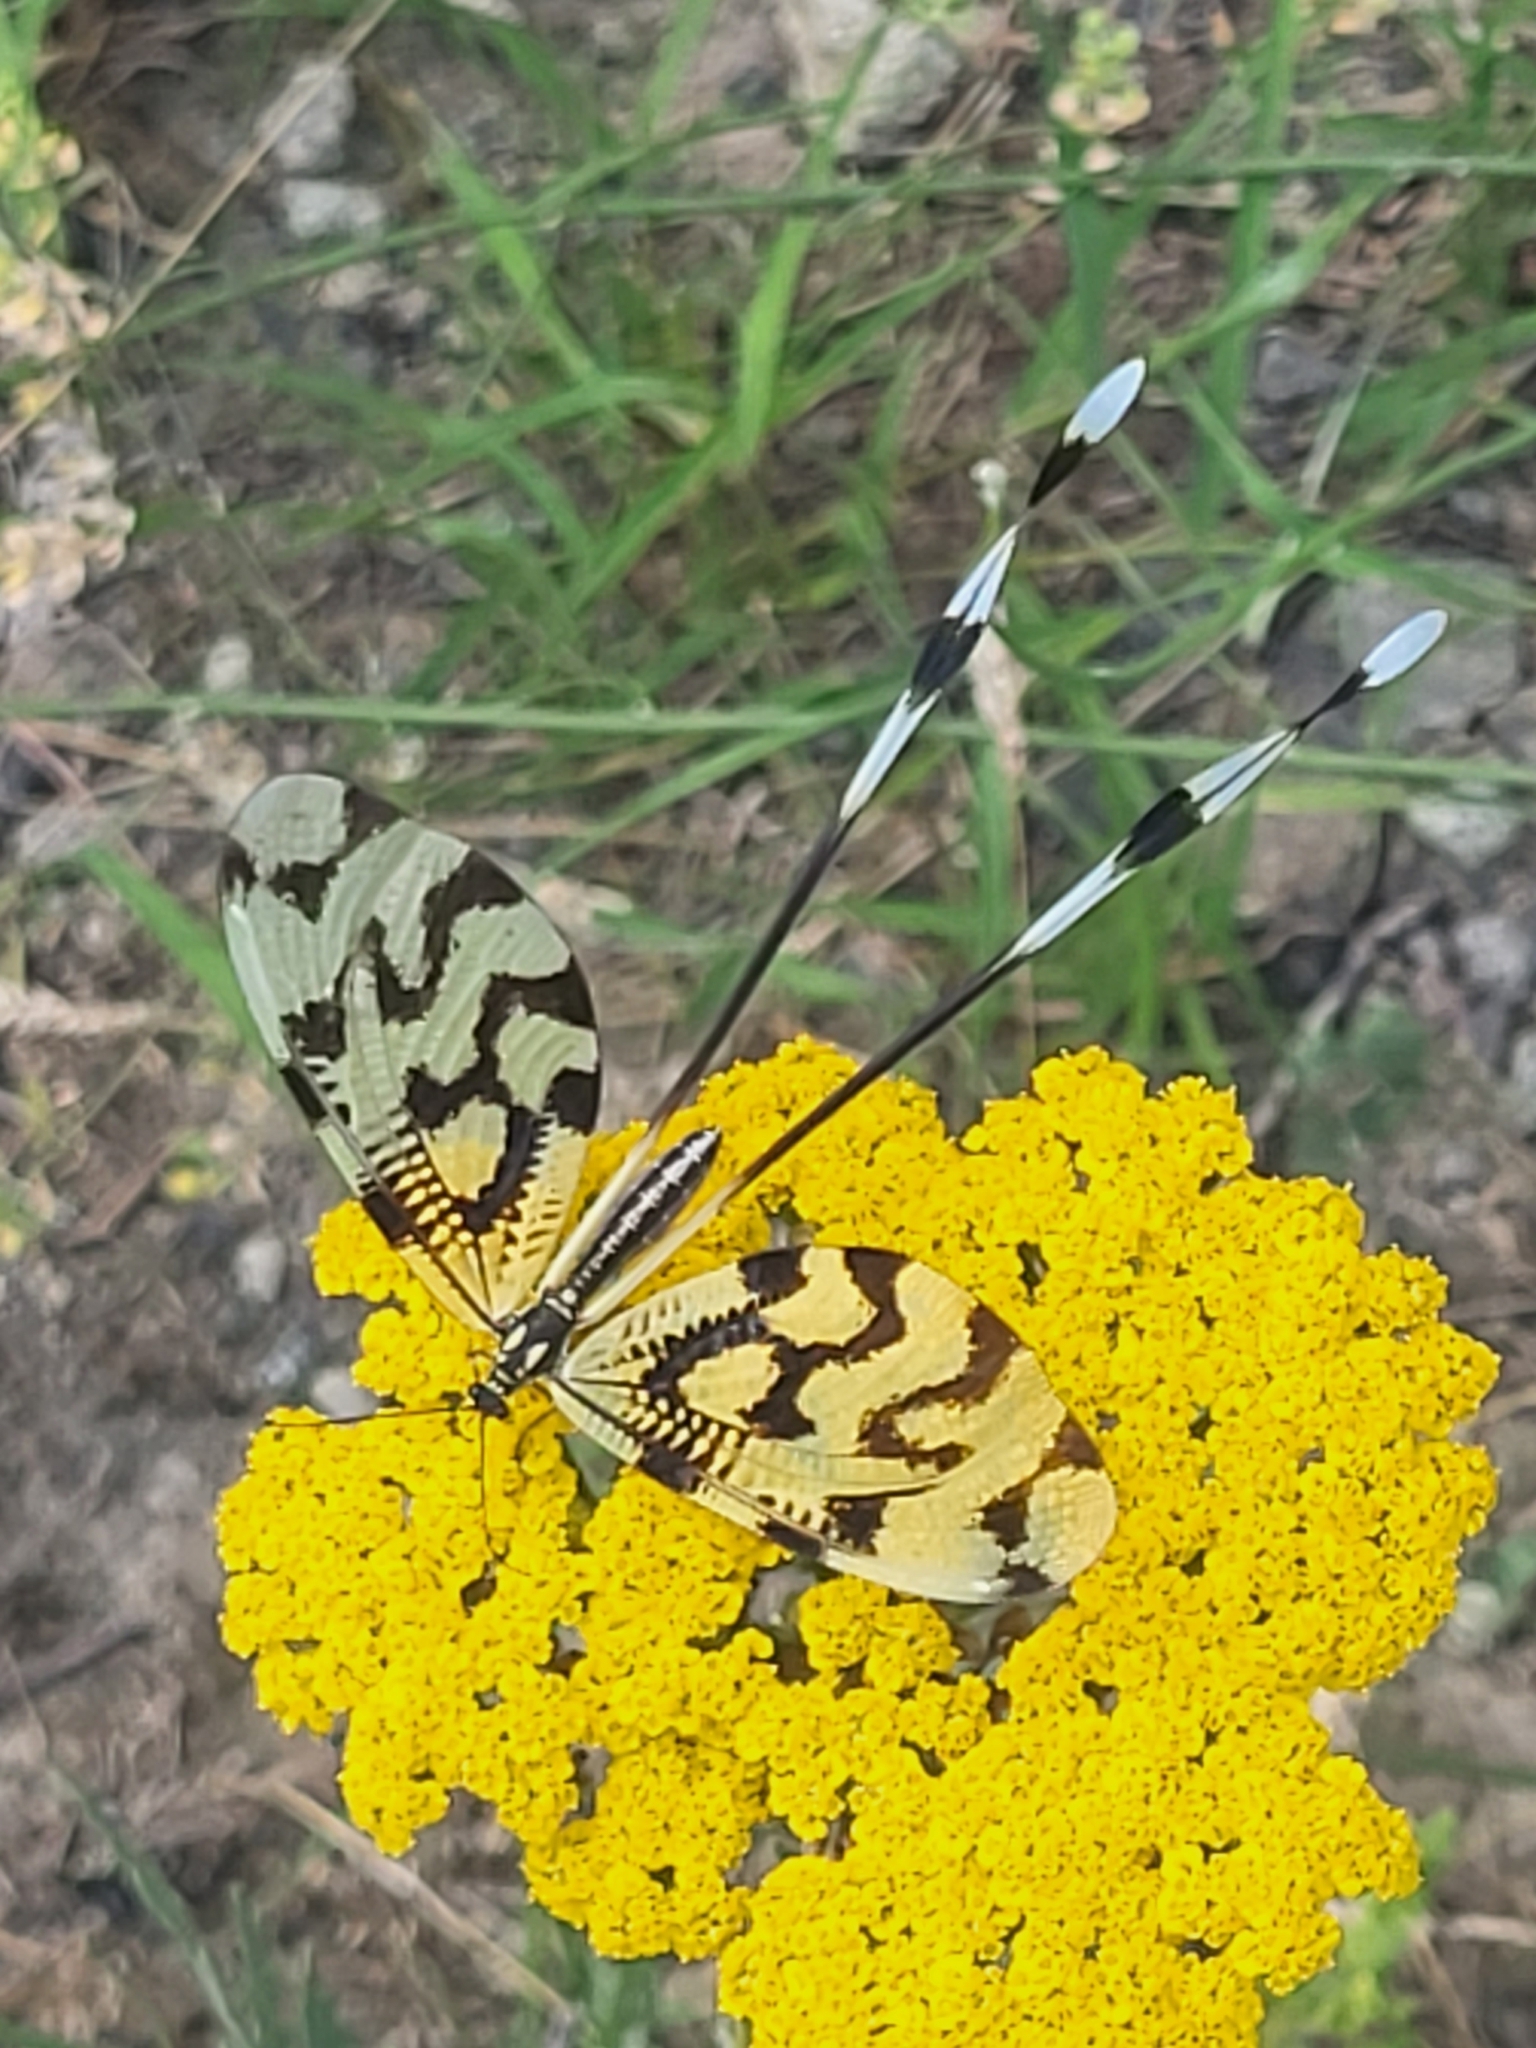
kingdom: Animalia
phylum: Arthropoda
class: Insecta
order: Neuroptera
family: Nemopteridae
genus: Nemoptera
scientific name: Nemoptera sinuata
